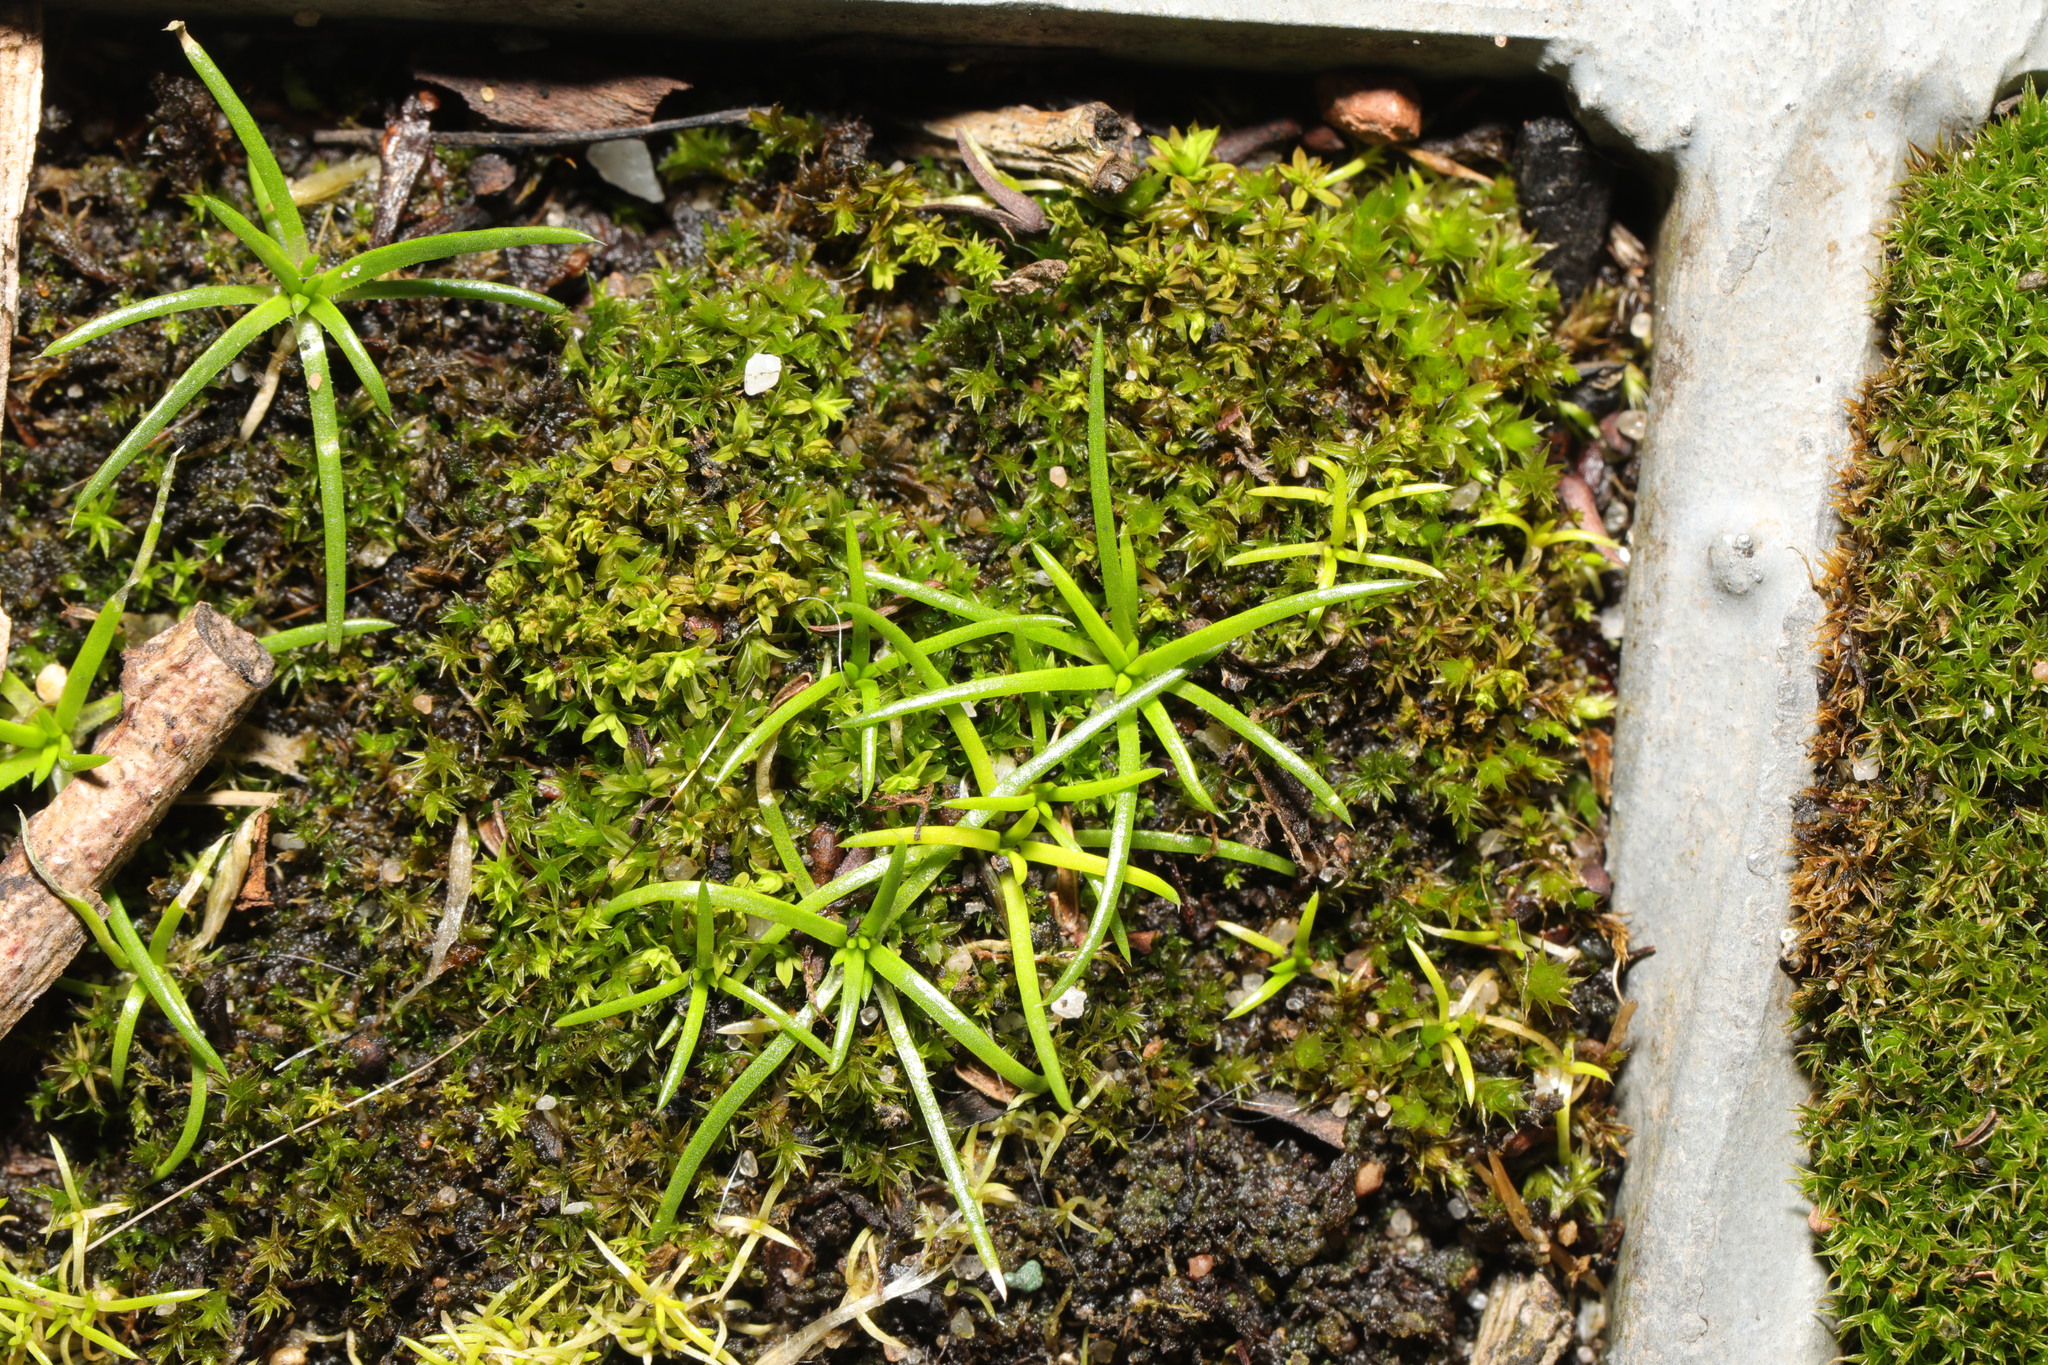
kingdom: Plantae
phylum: Tracheophyta
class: Magnoliopsida
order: Caryophyllales
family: Caryophyllaceae
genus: Sagina
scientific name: Sagina procumbens
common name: Procumbent pearlwort
